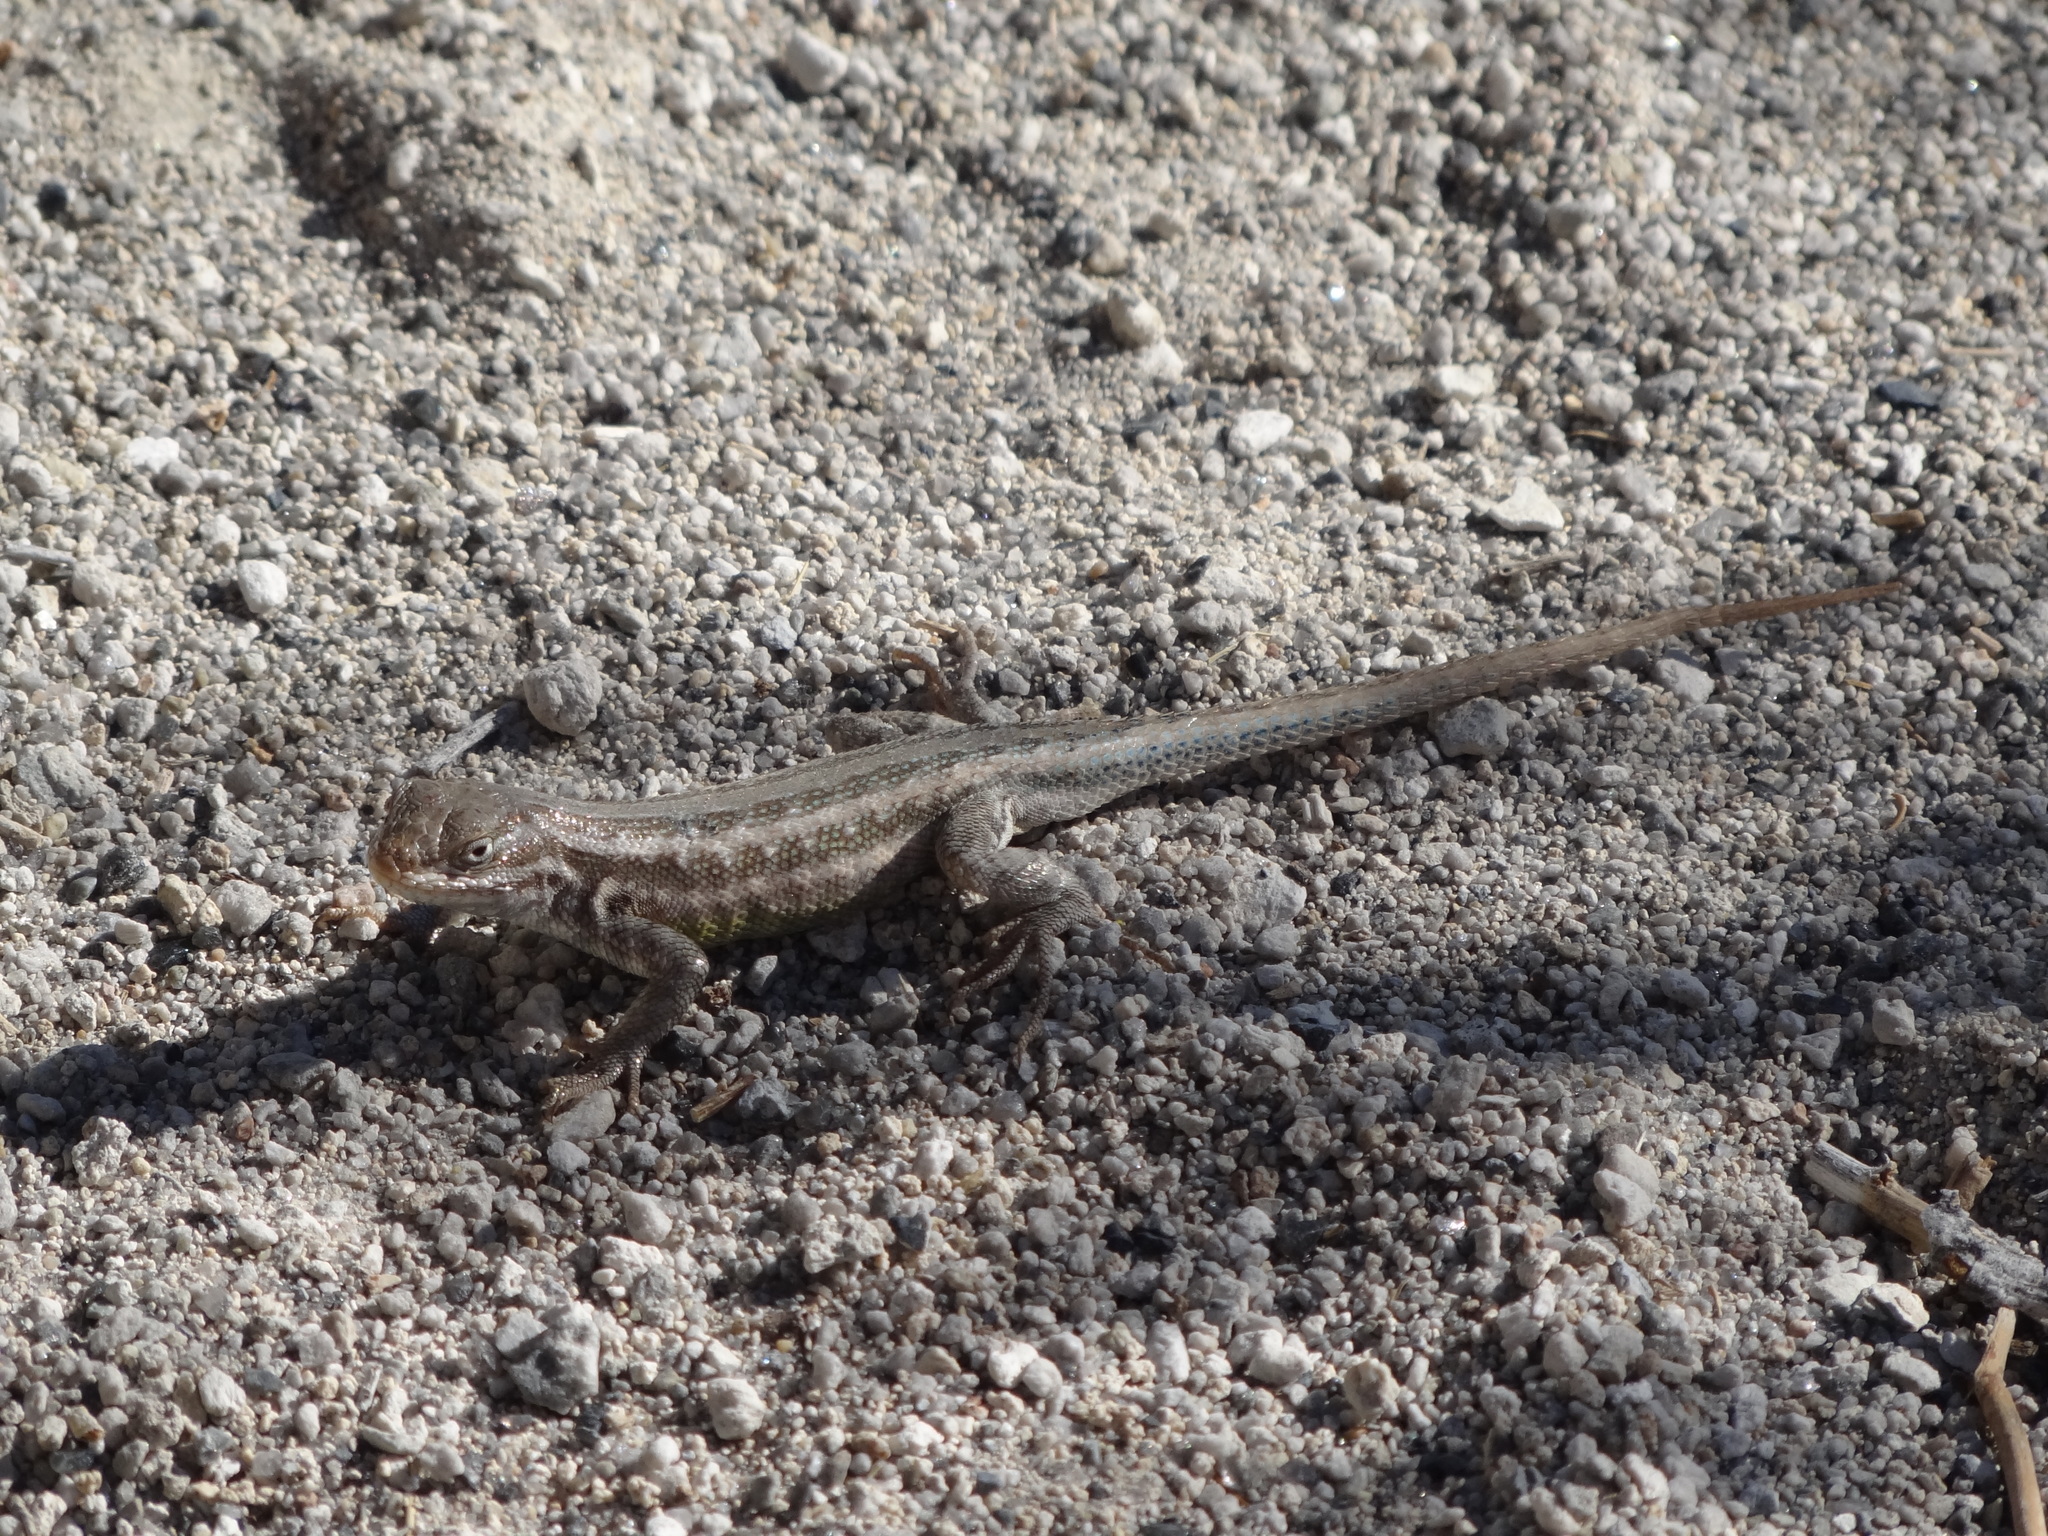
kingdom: Animalia
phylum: Chordata
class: Squamata
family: Phrynosomatidae
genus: Sceloporus
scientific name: Sceloporus graciosus
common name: Sagebrush lizard
